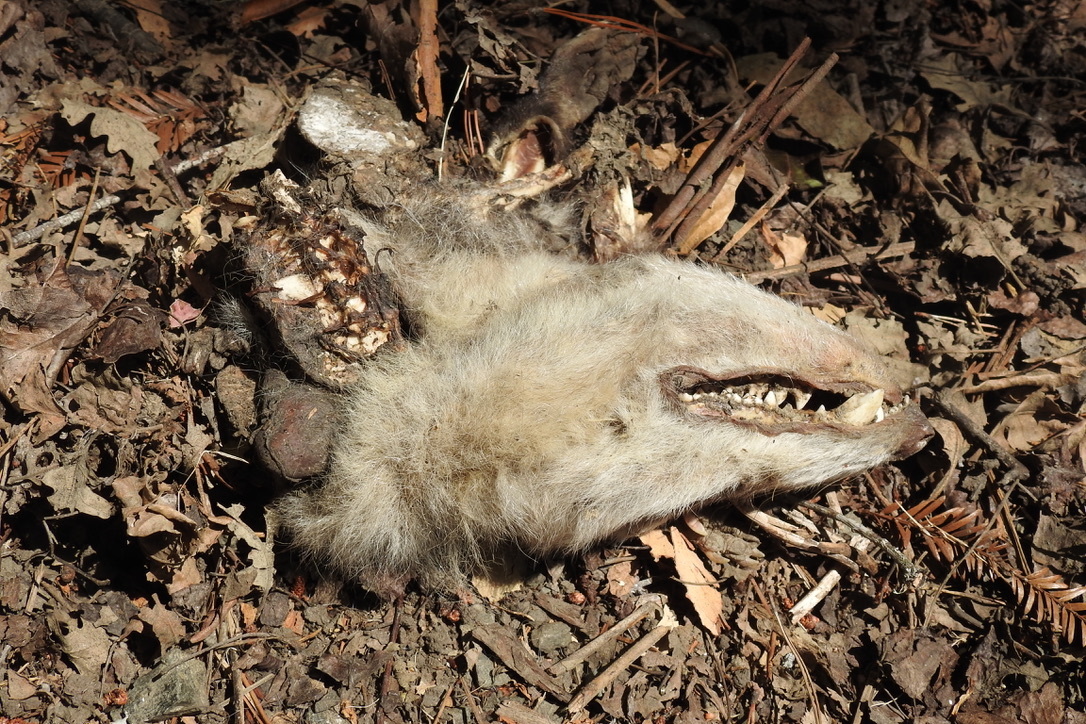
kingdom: Animalia
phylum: Chordata
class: Mammalia
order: Didelphimorphia
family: Didelphidae
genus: Didelphis
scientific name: Didelphis virginiana
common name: Virginia opossum
